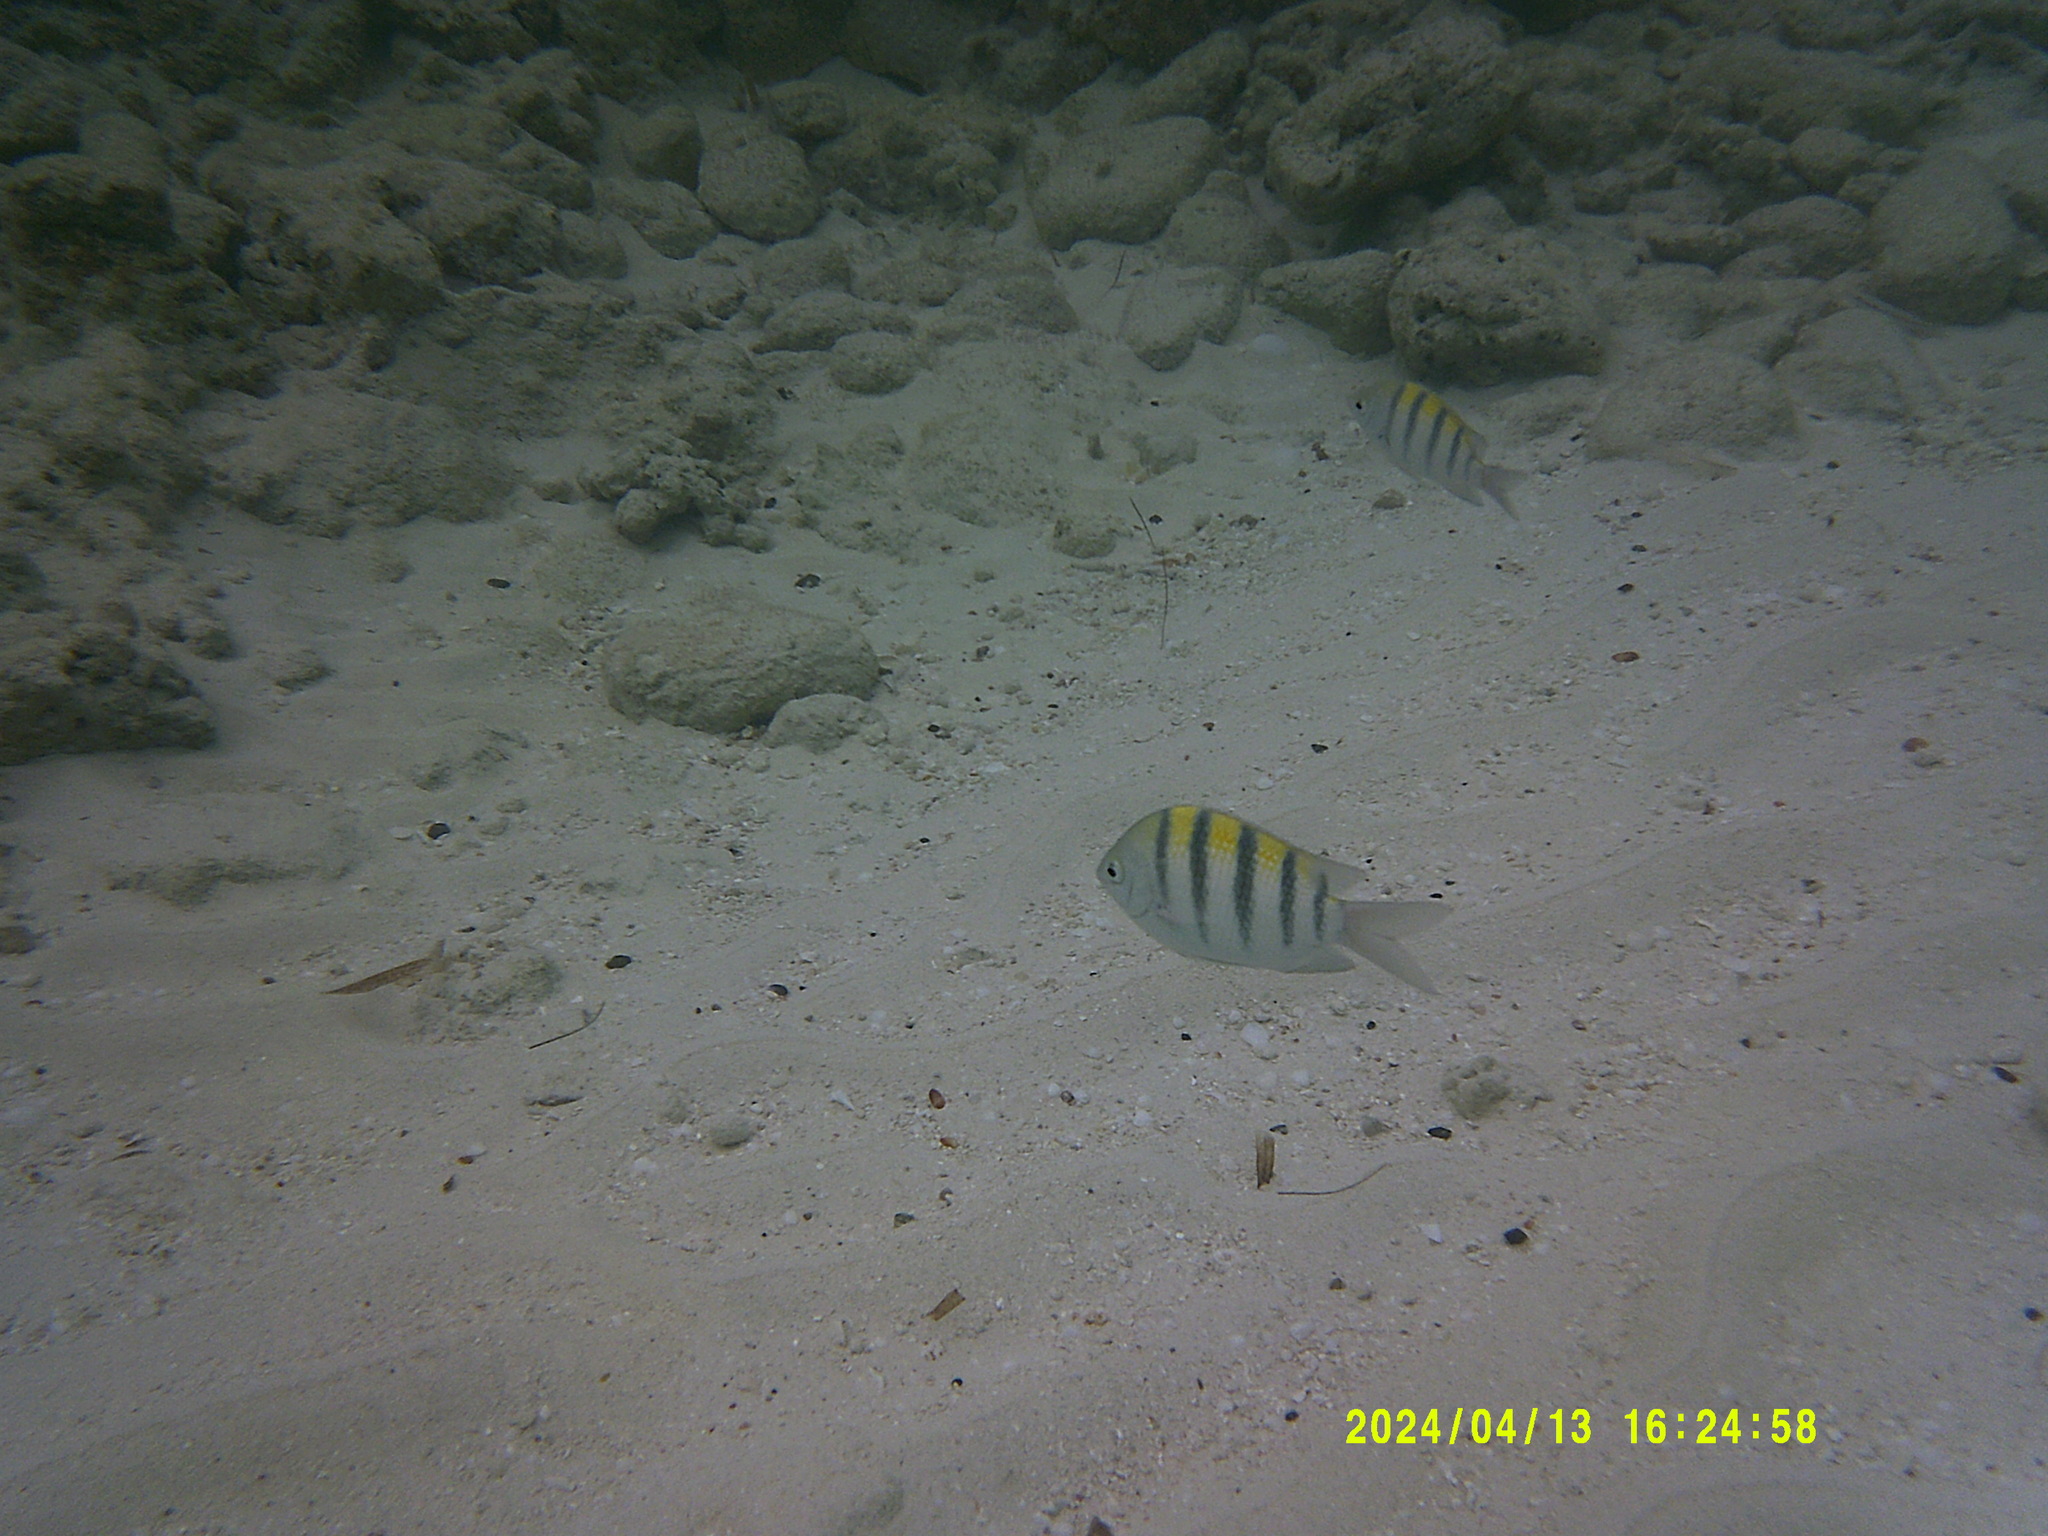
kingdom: Animalia
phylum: Chordata
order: Perciformes
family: Pomacentridae
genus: Abudefduf
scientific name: Abudefduf saxatilis
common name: Sergeant major
